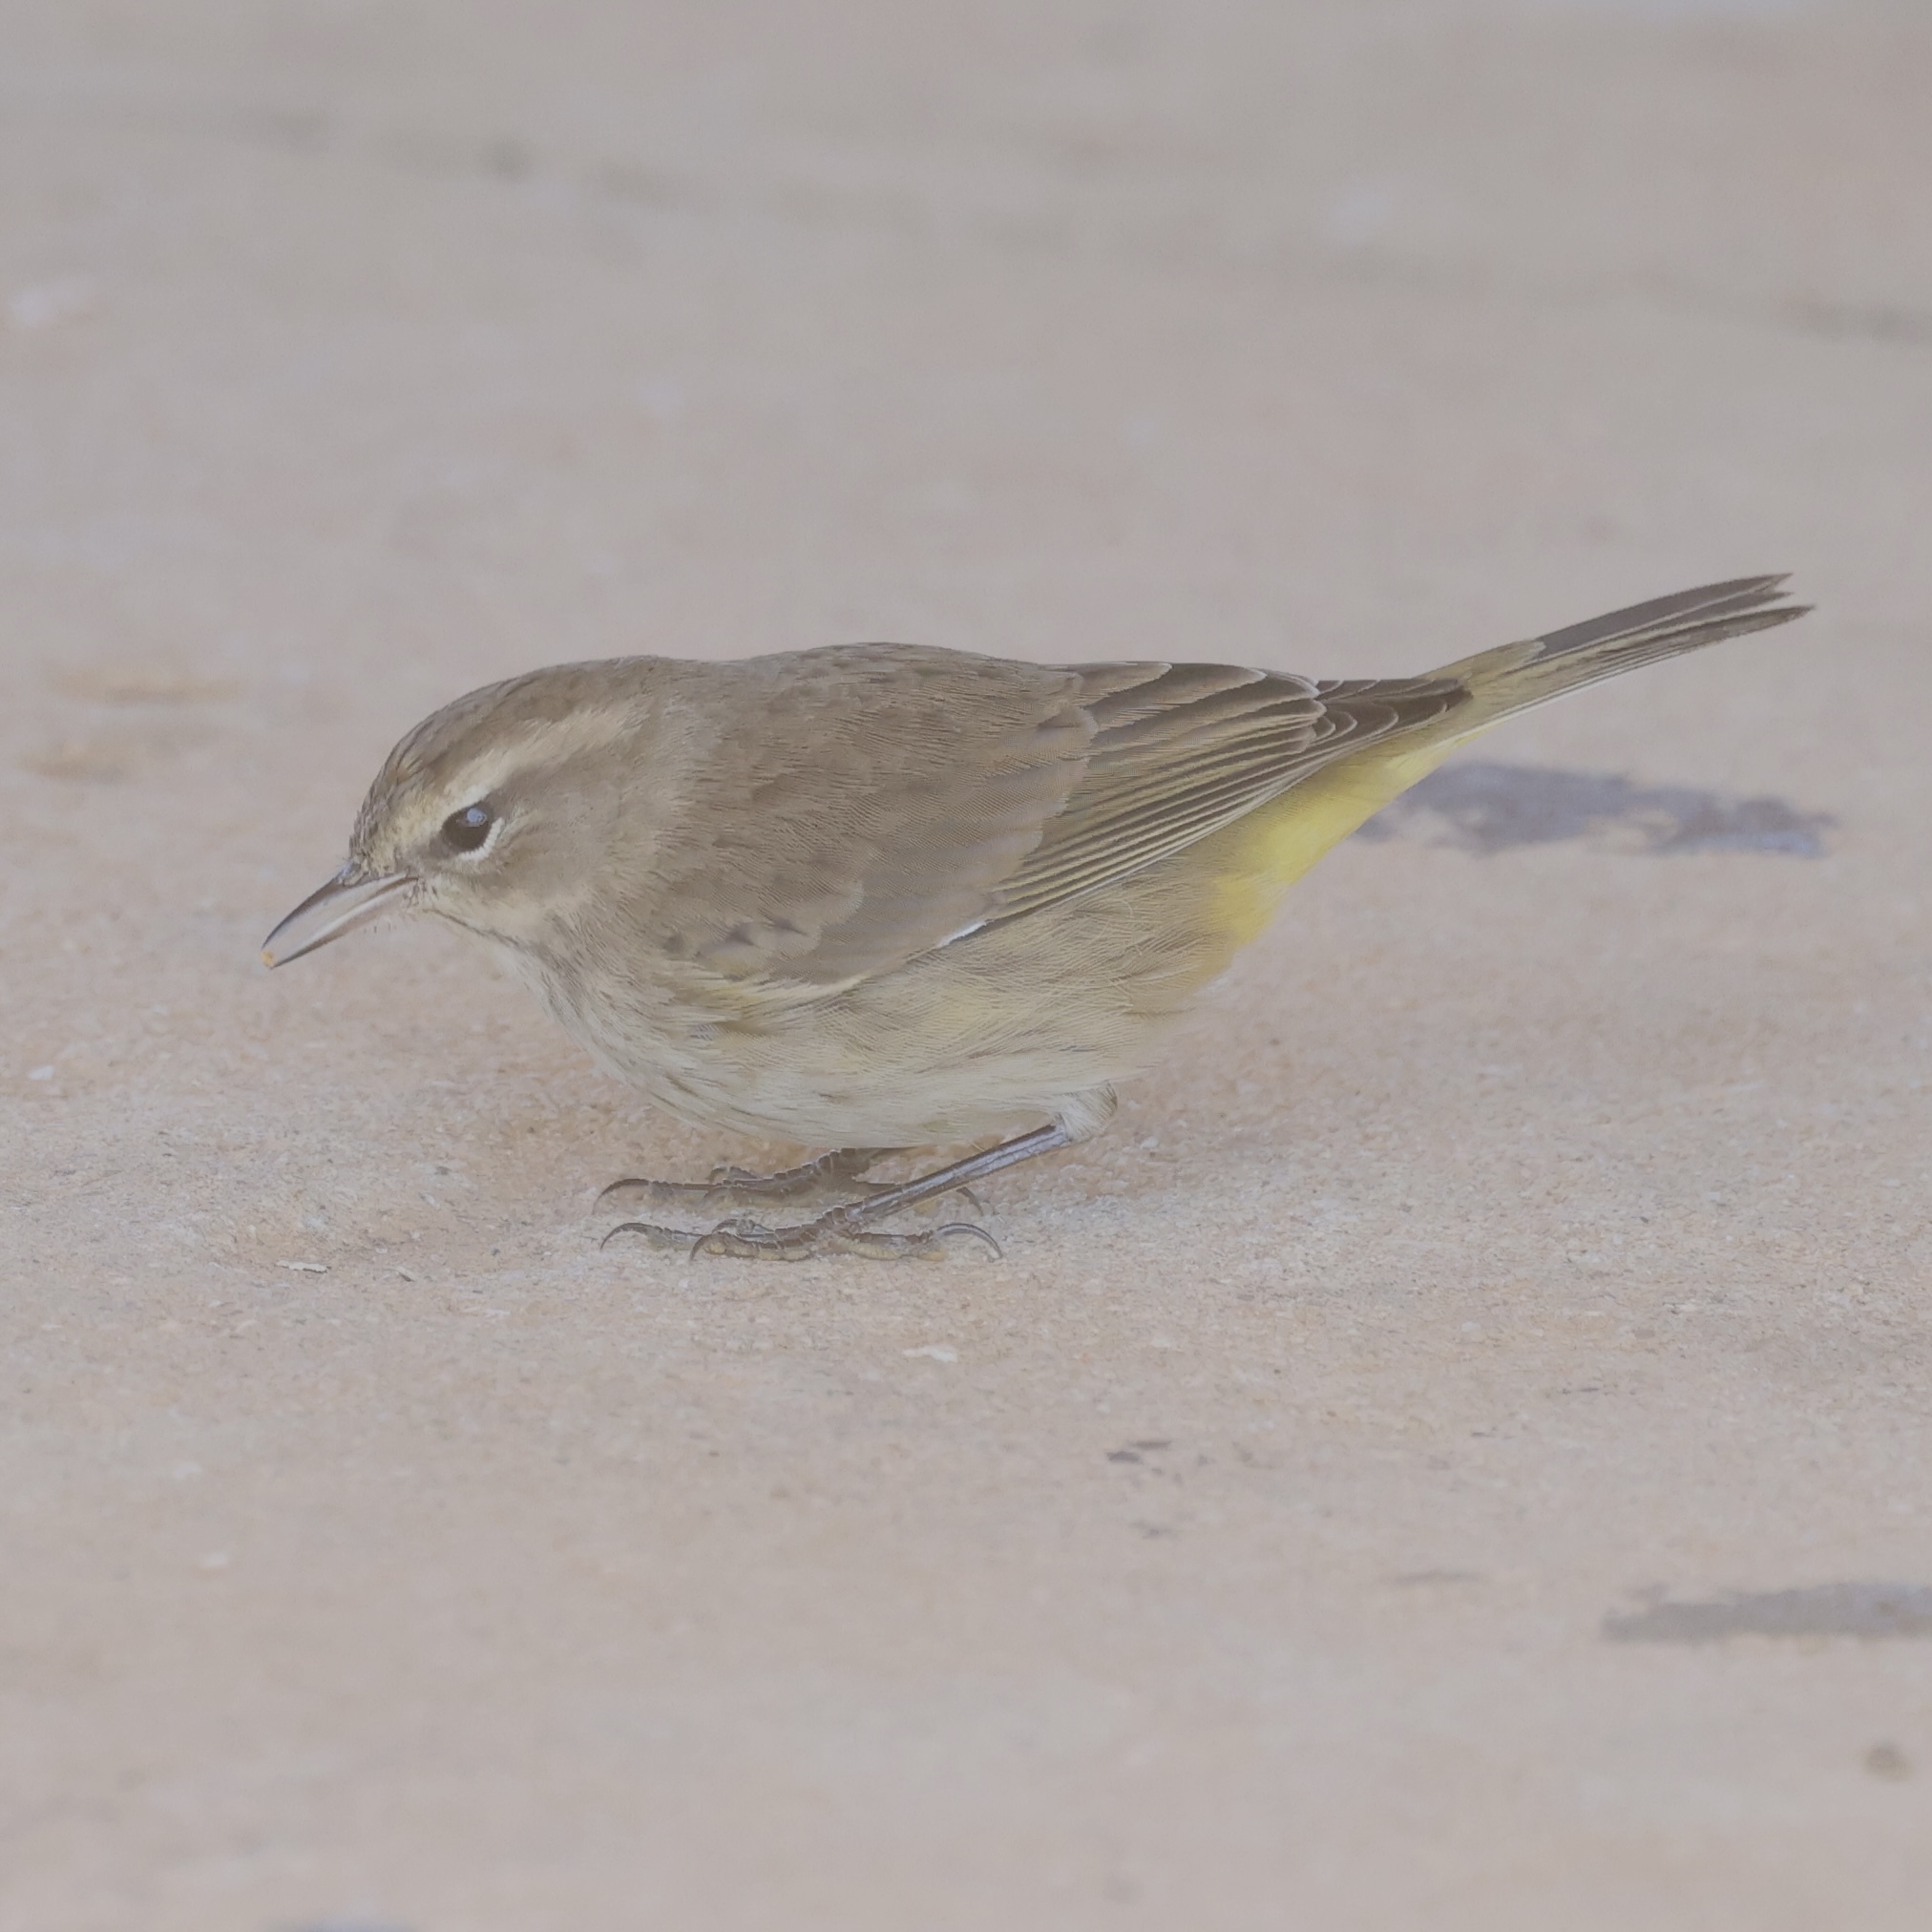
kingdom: Animalia
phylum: Chordata
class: Aves
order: Passeriformes
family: Parulidae
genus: Setophaga
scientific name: Setophaga palmarum
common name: Palm warbler
